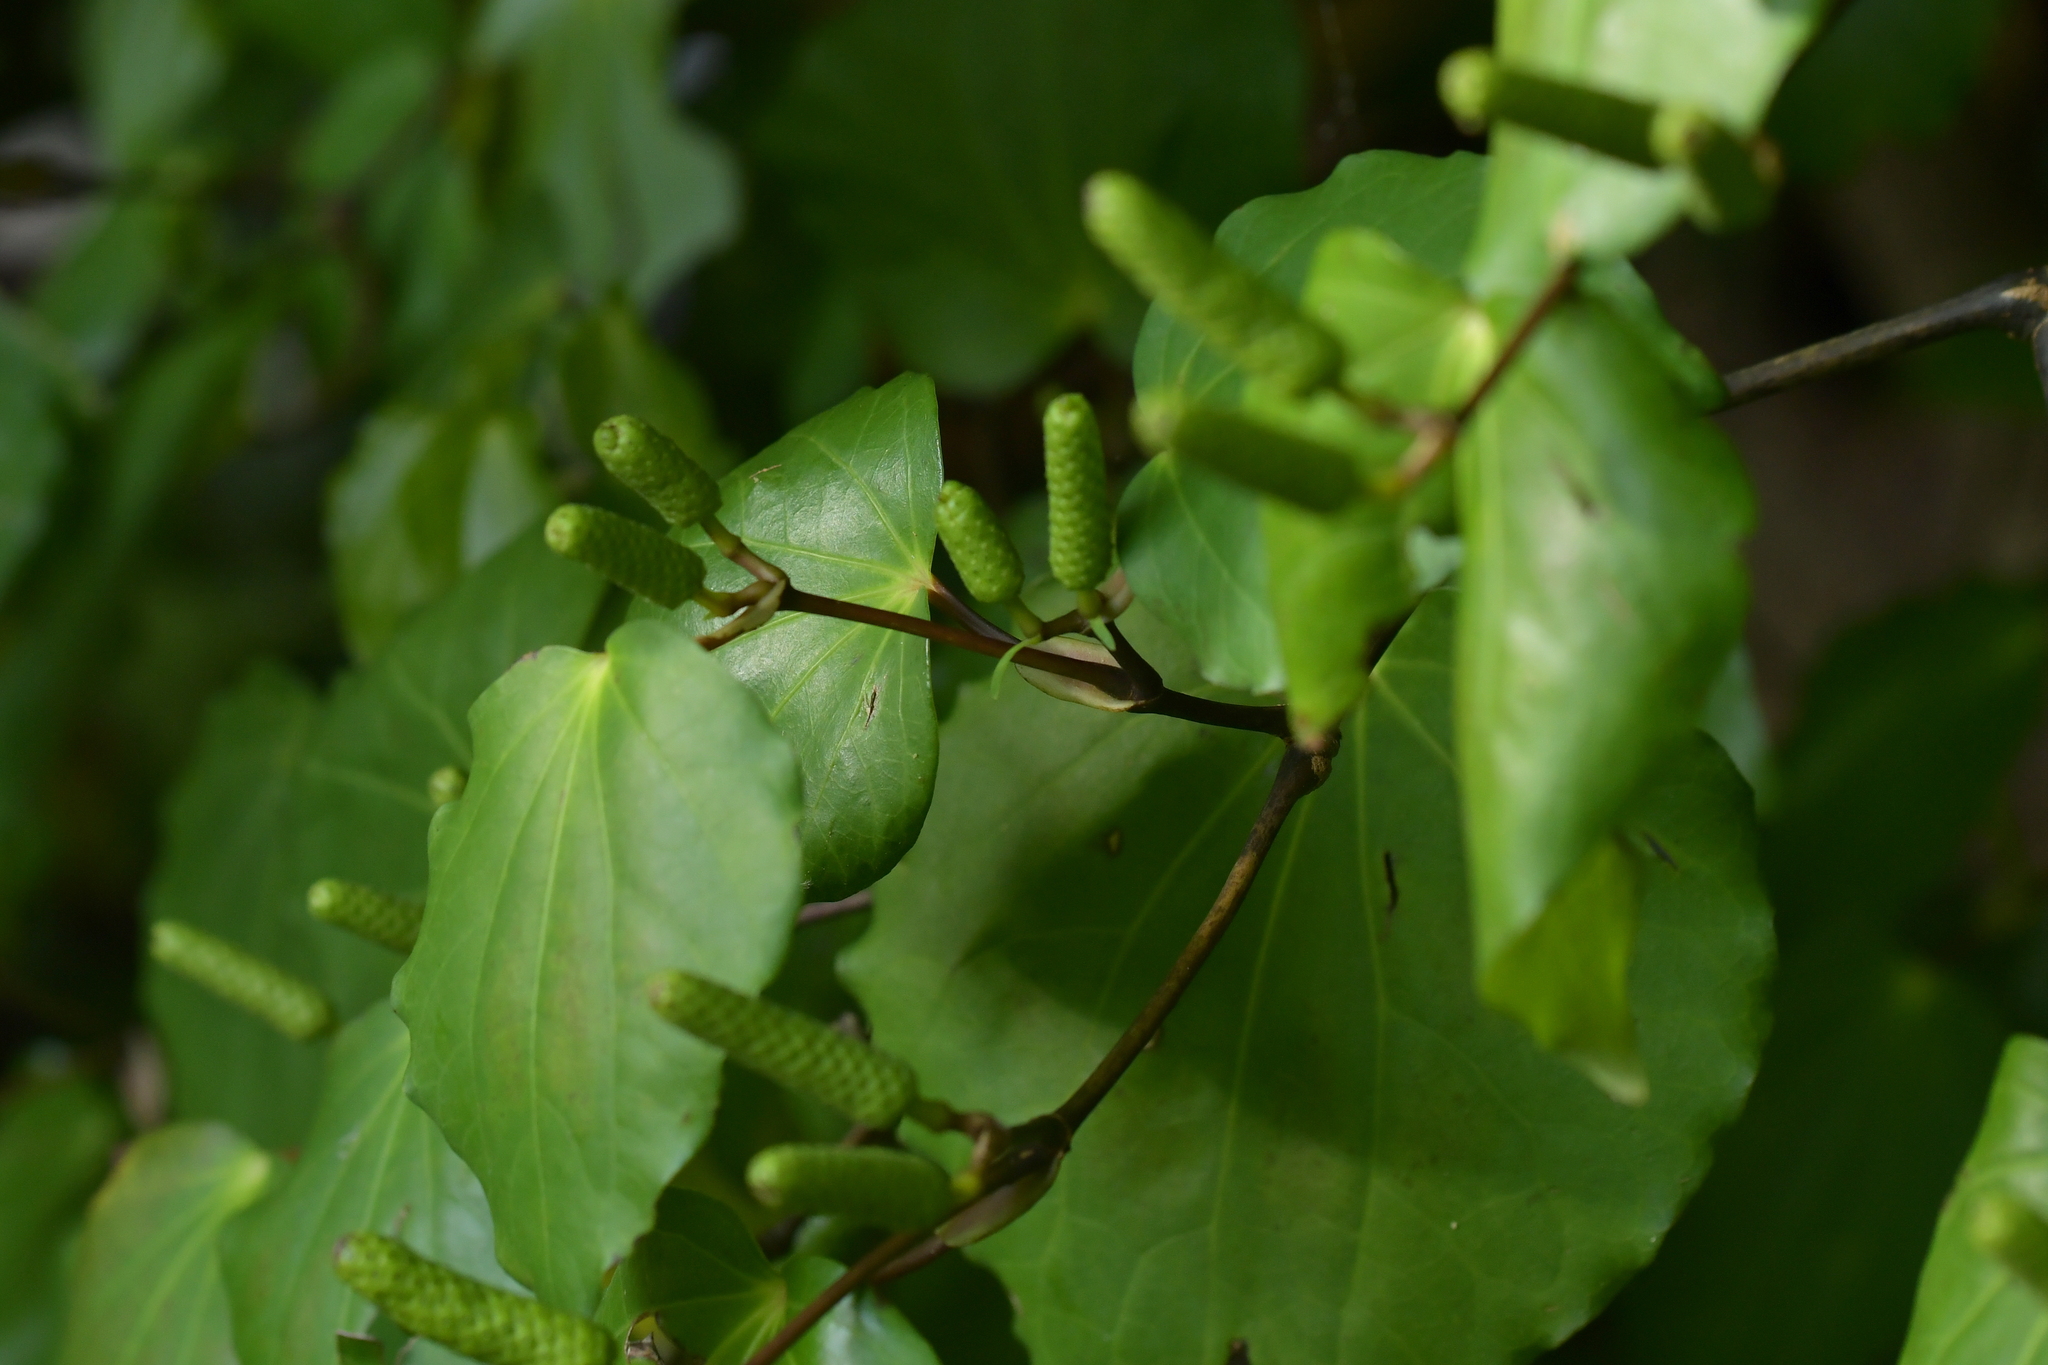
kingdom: Plantae
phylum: Tracheophyta
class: Magnoliopsida
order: Piperales
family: Piperaceae
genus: Macropiper
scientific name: Macropiper excelsum
